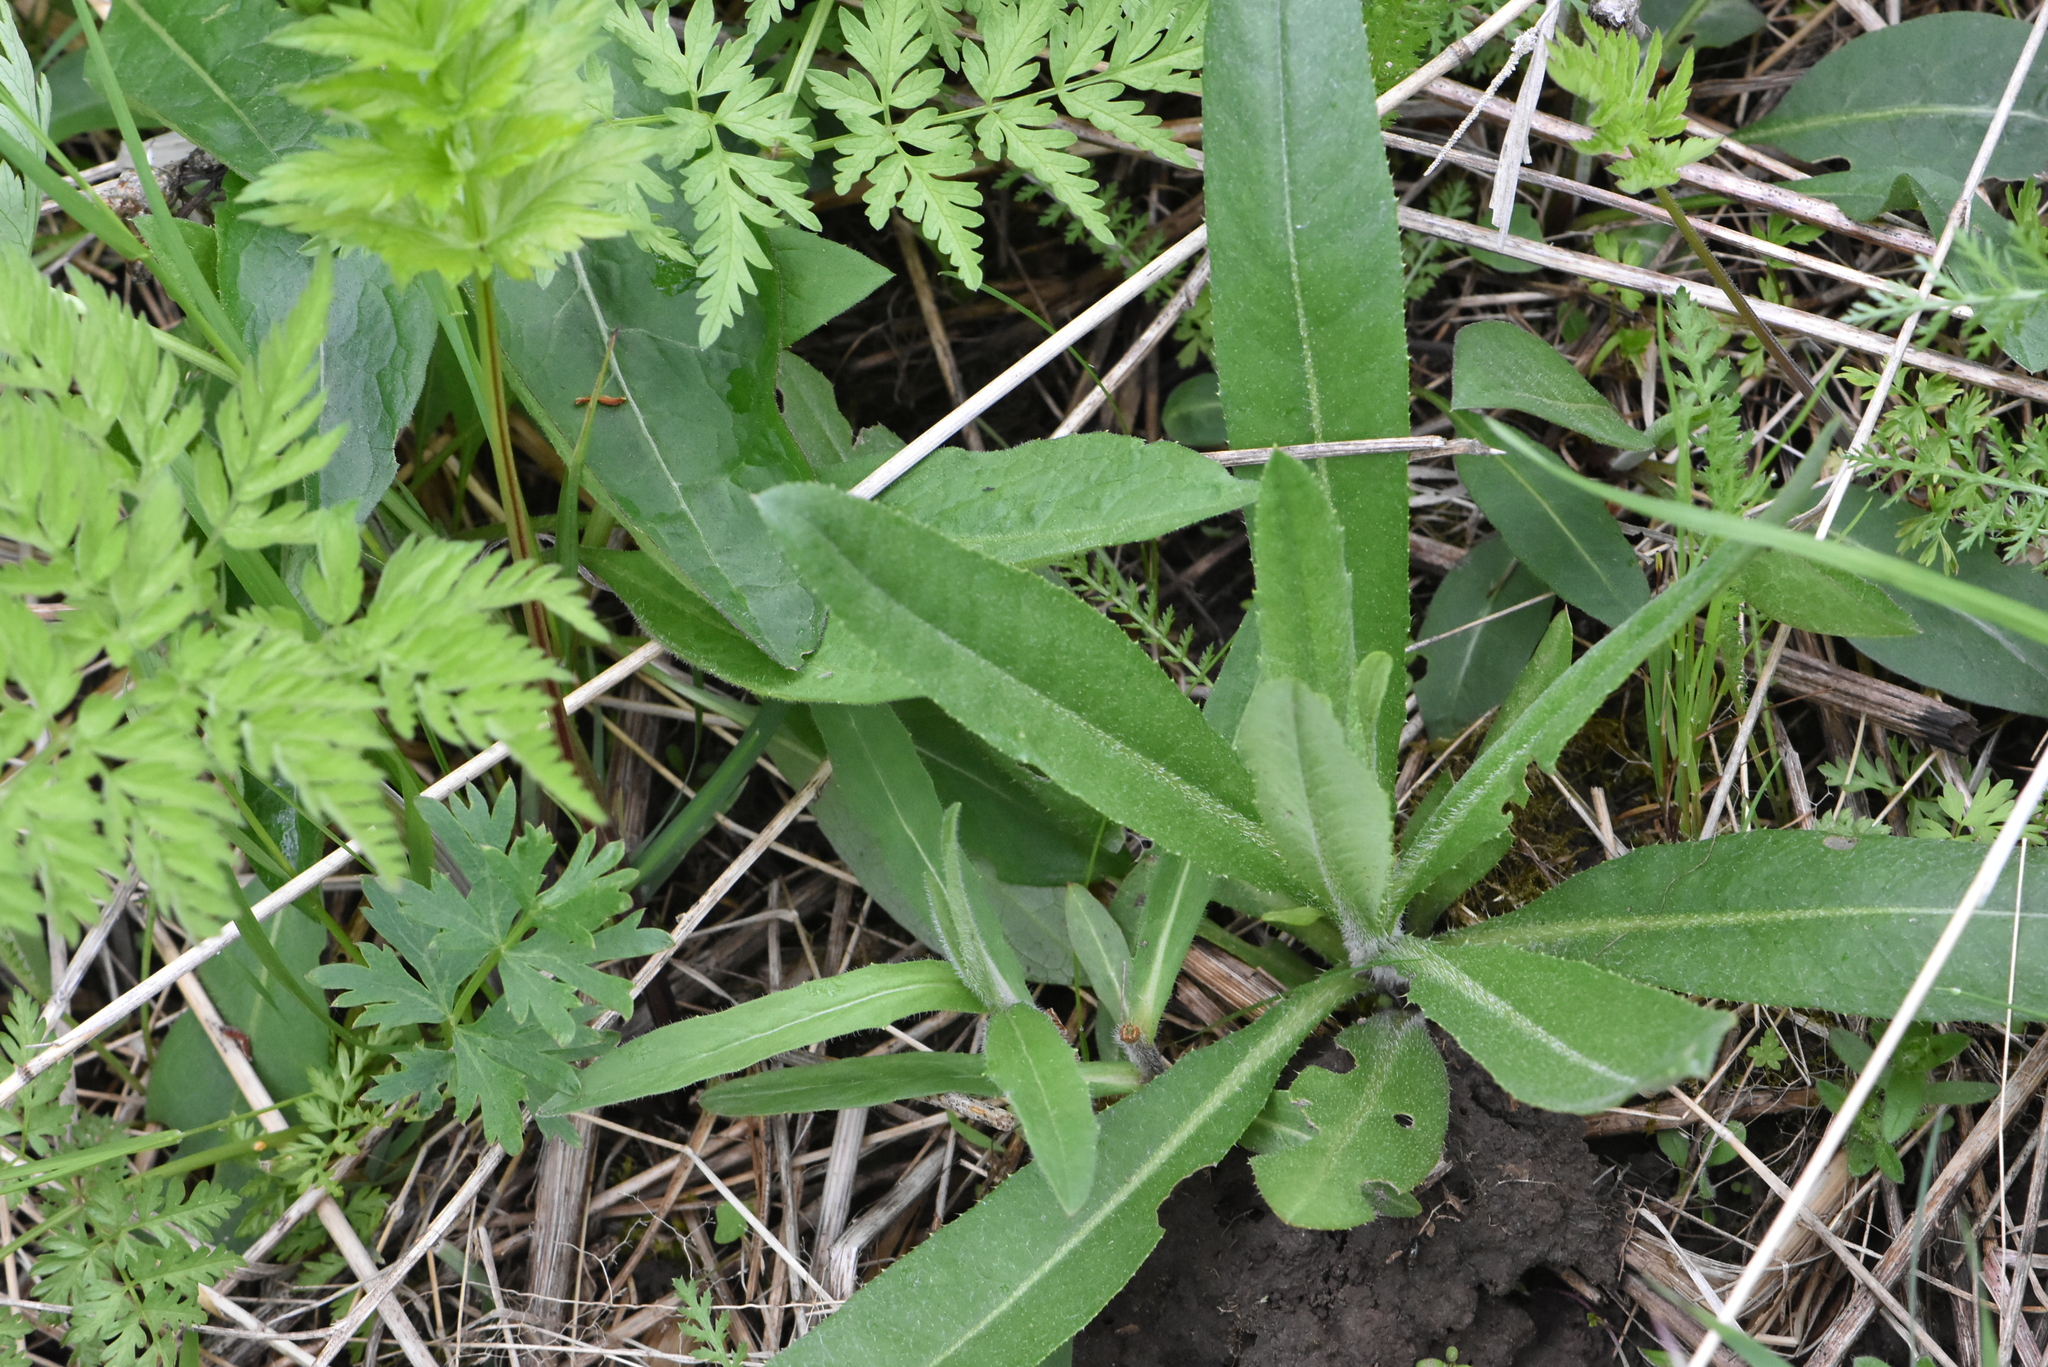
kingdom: Plantae
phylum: Tracheophyta
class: Magnoliopsida
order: Asterales
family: Asteraceae
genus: Cirsium
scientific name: Cirsium arvense
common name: Creeping thistle
